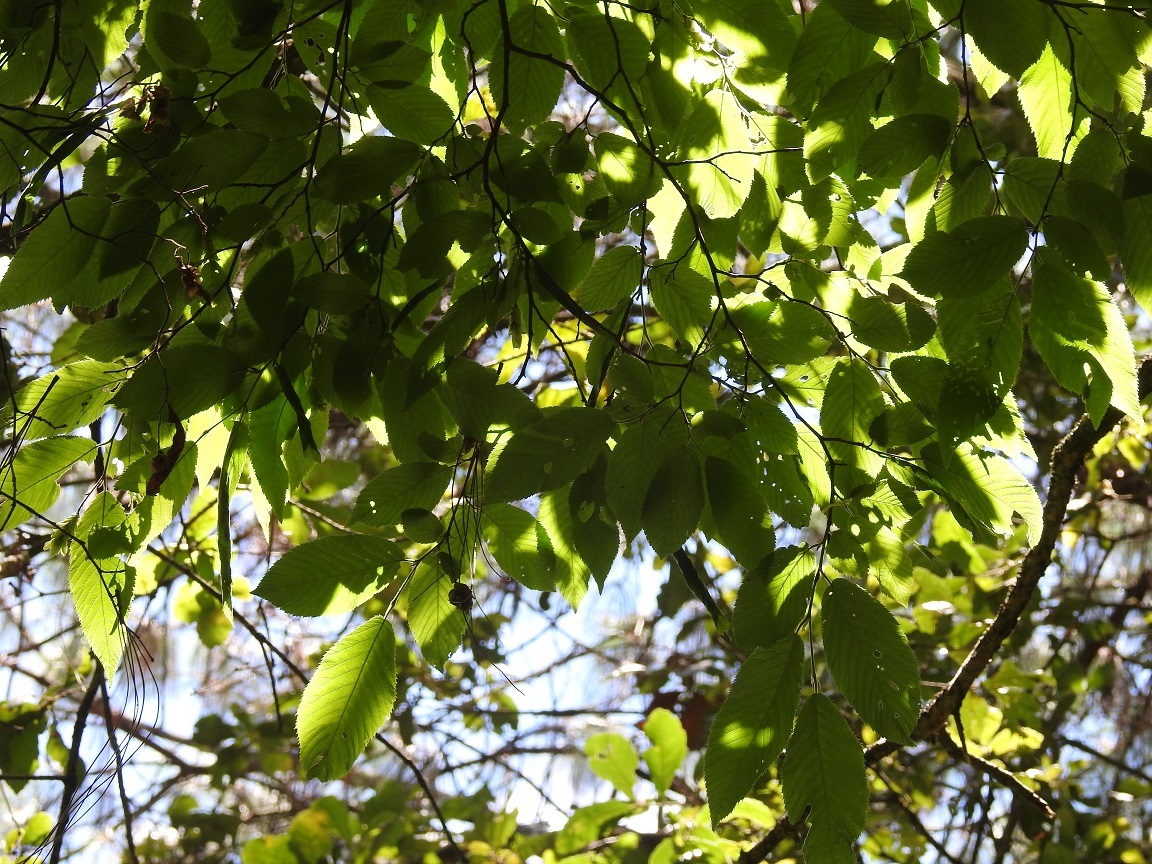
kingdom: Plantae
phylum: Tracheophyta
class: Magnoliopsida
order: Fagales
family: Betulaceae
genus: Ostrya
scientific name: Ostrya virginiana
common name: Ironwood
